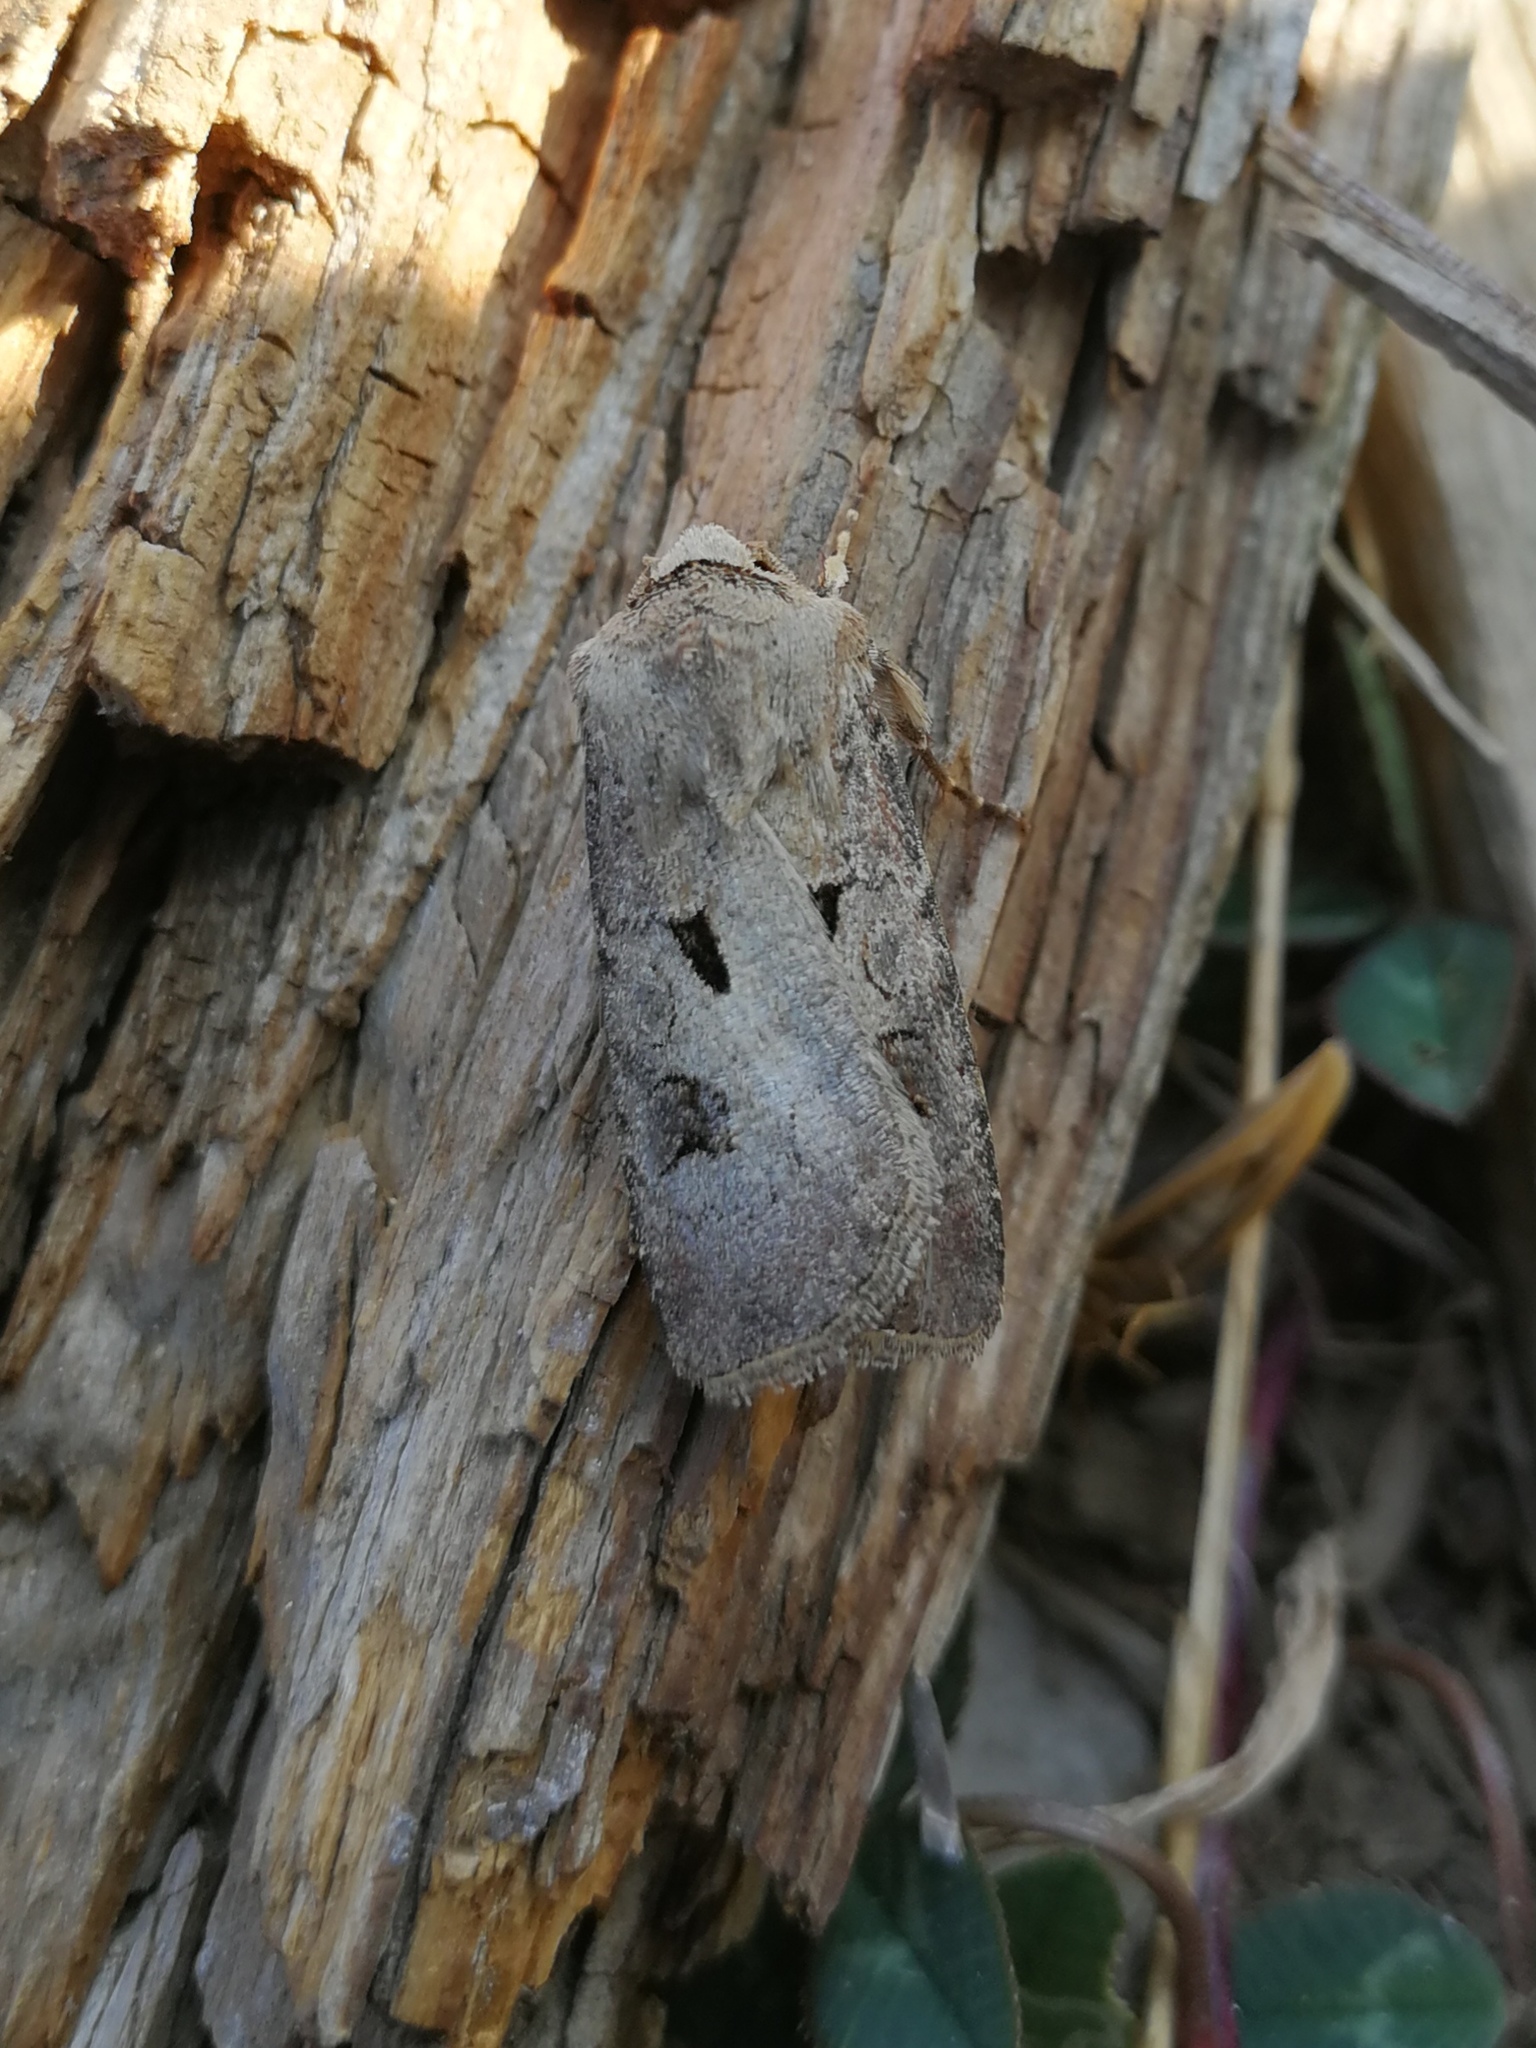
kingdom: Animalia
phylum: Arthropoda
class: Insecta
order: Lepidoptera
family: Noctuidae
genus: Agrotis
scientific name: Agrotis exclamationis
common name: Heart and dart
